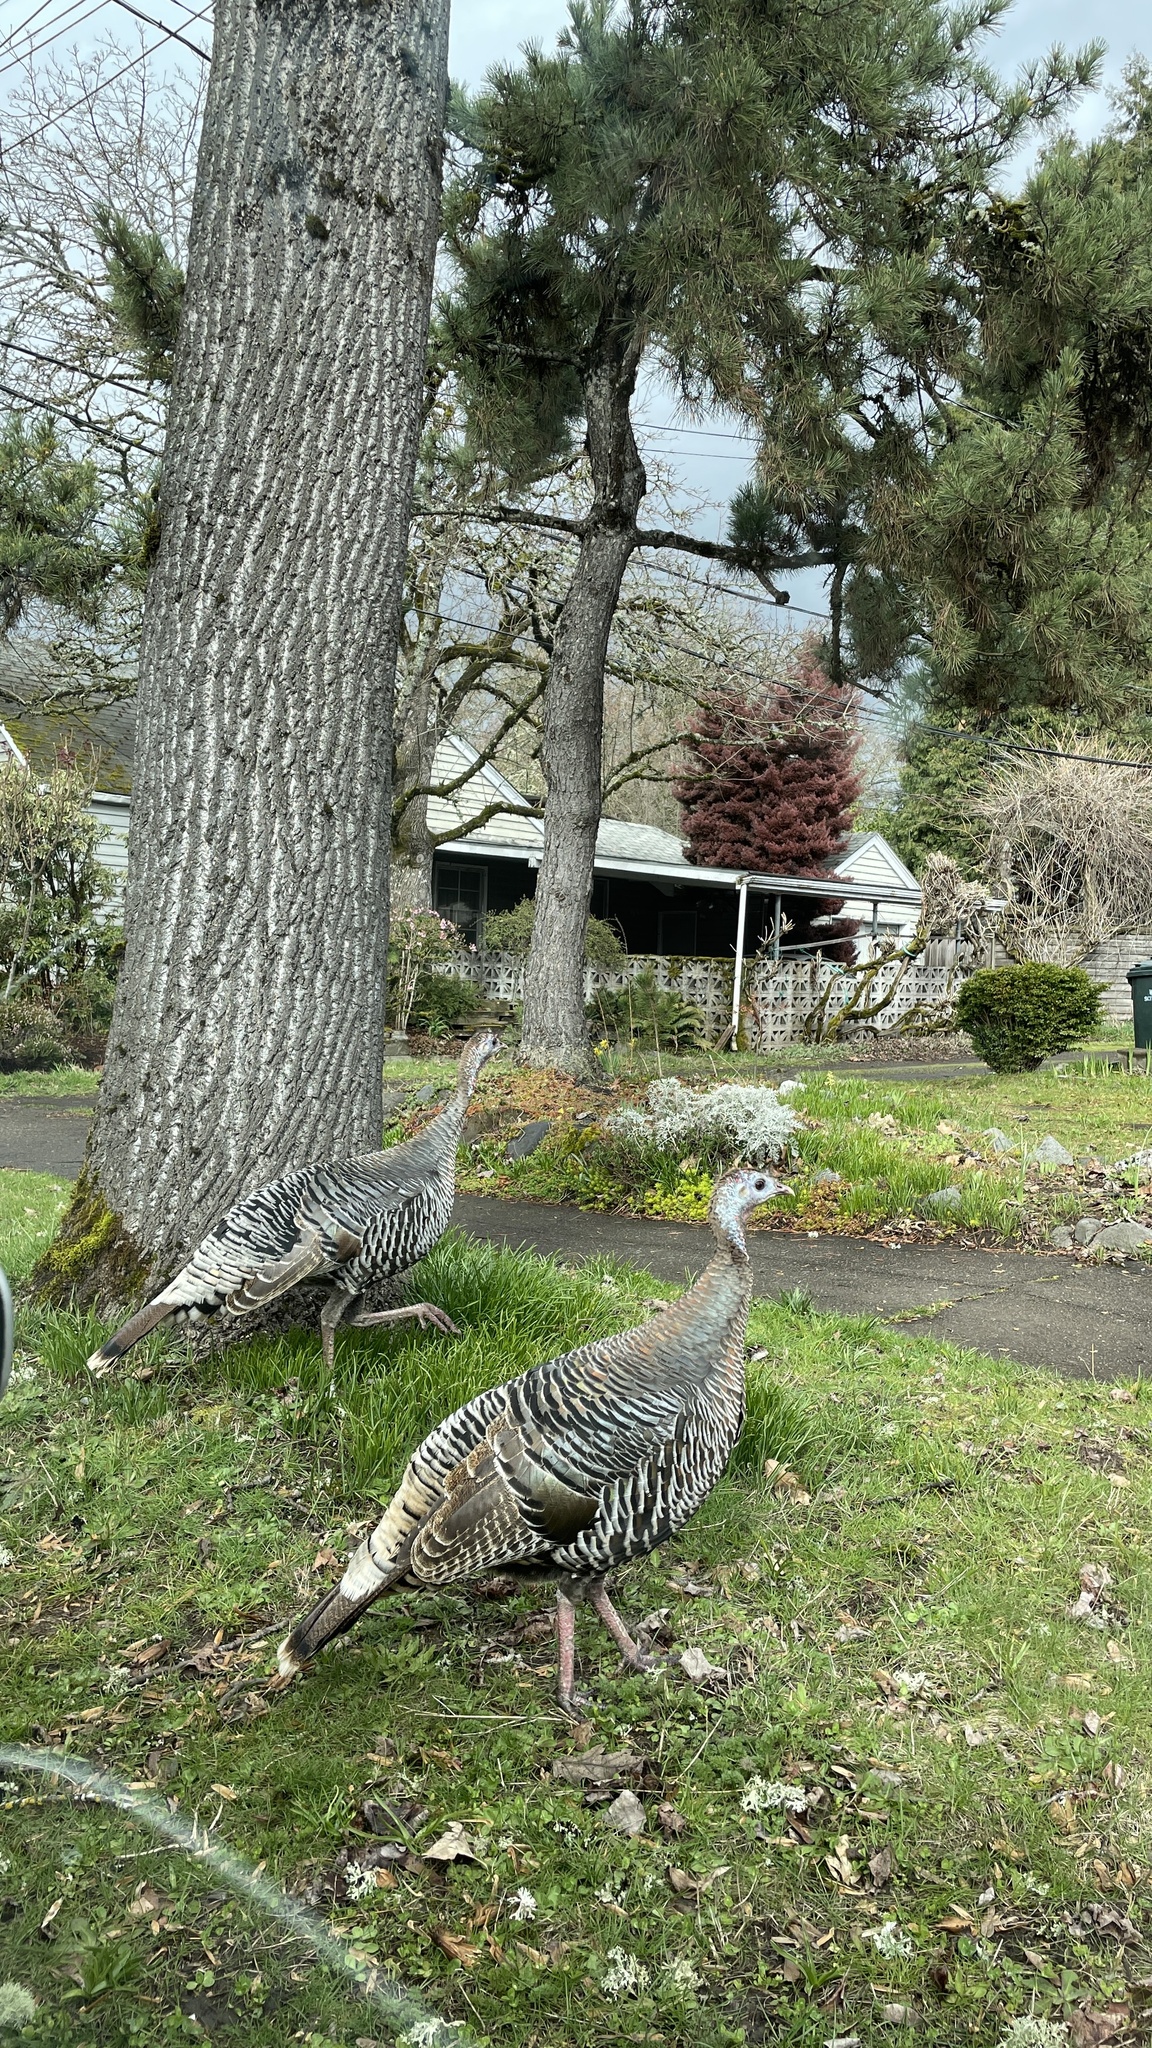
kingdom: Animalia
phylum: Chordata
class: Aves
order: Galliformes
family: Phasianidae
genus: Meleagris
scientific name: Meleagris gallopavo
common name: Wild turkey
